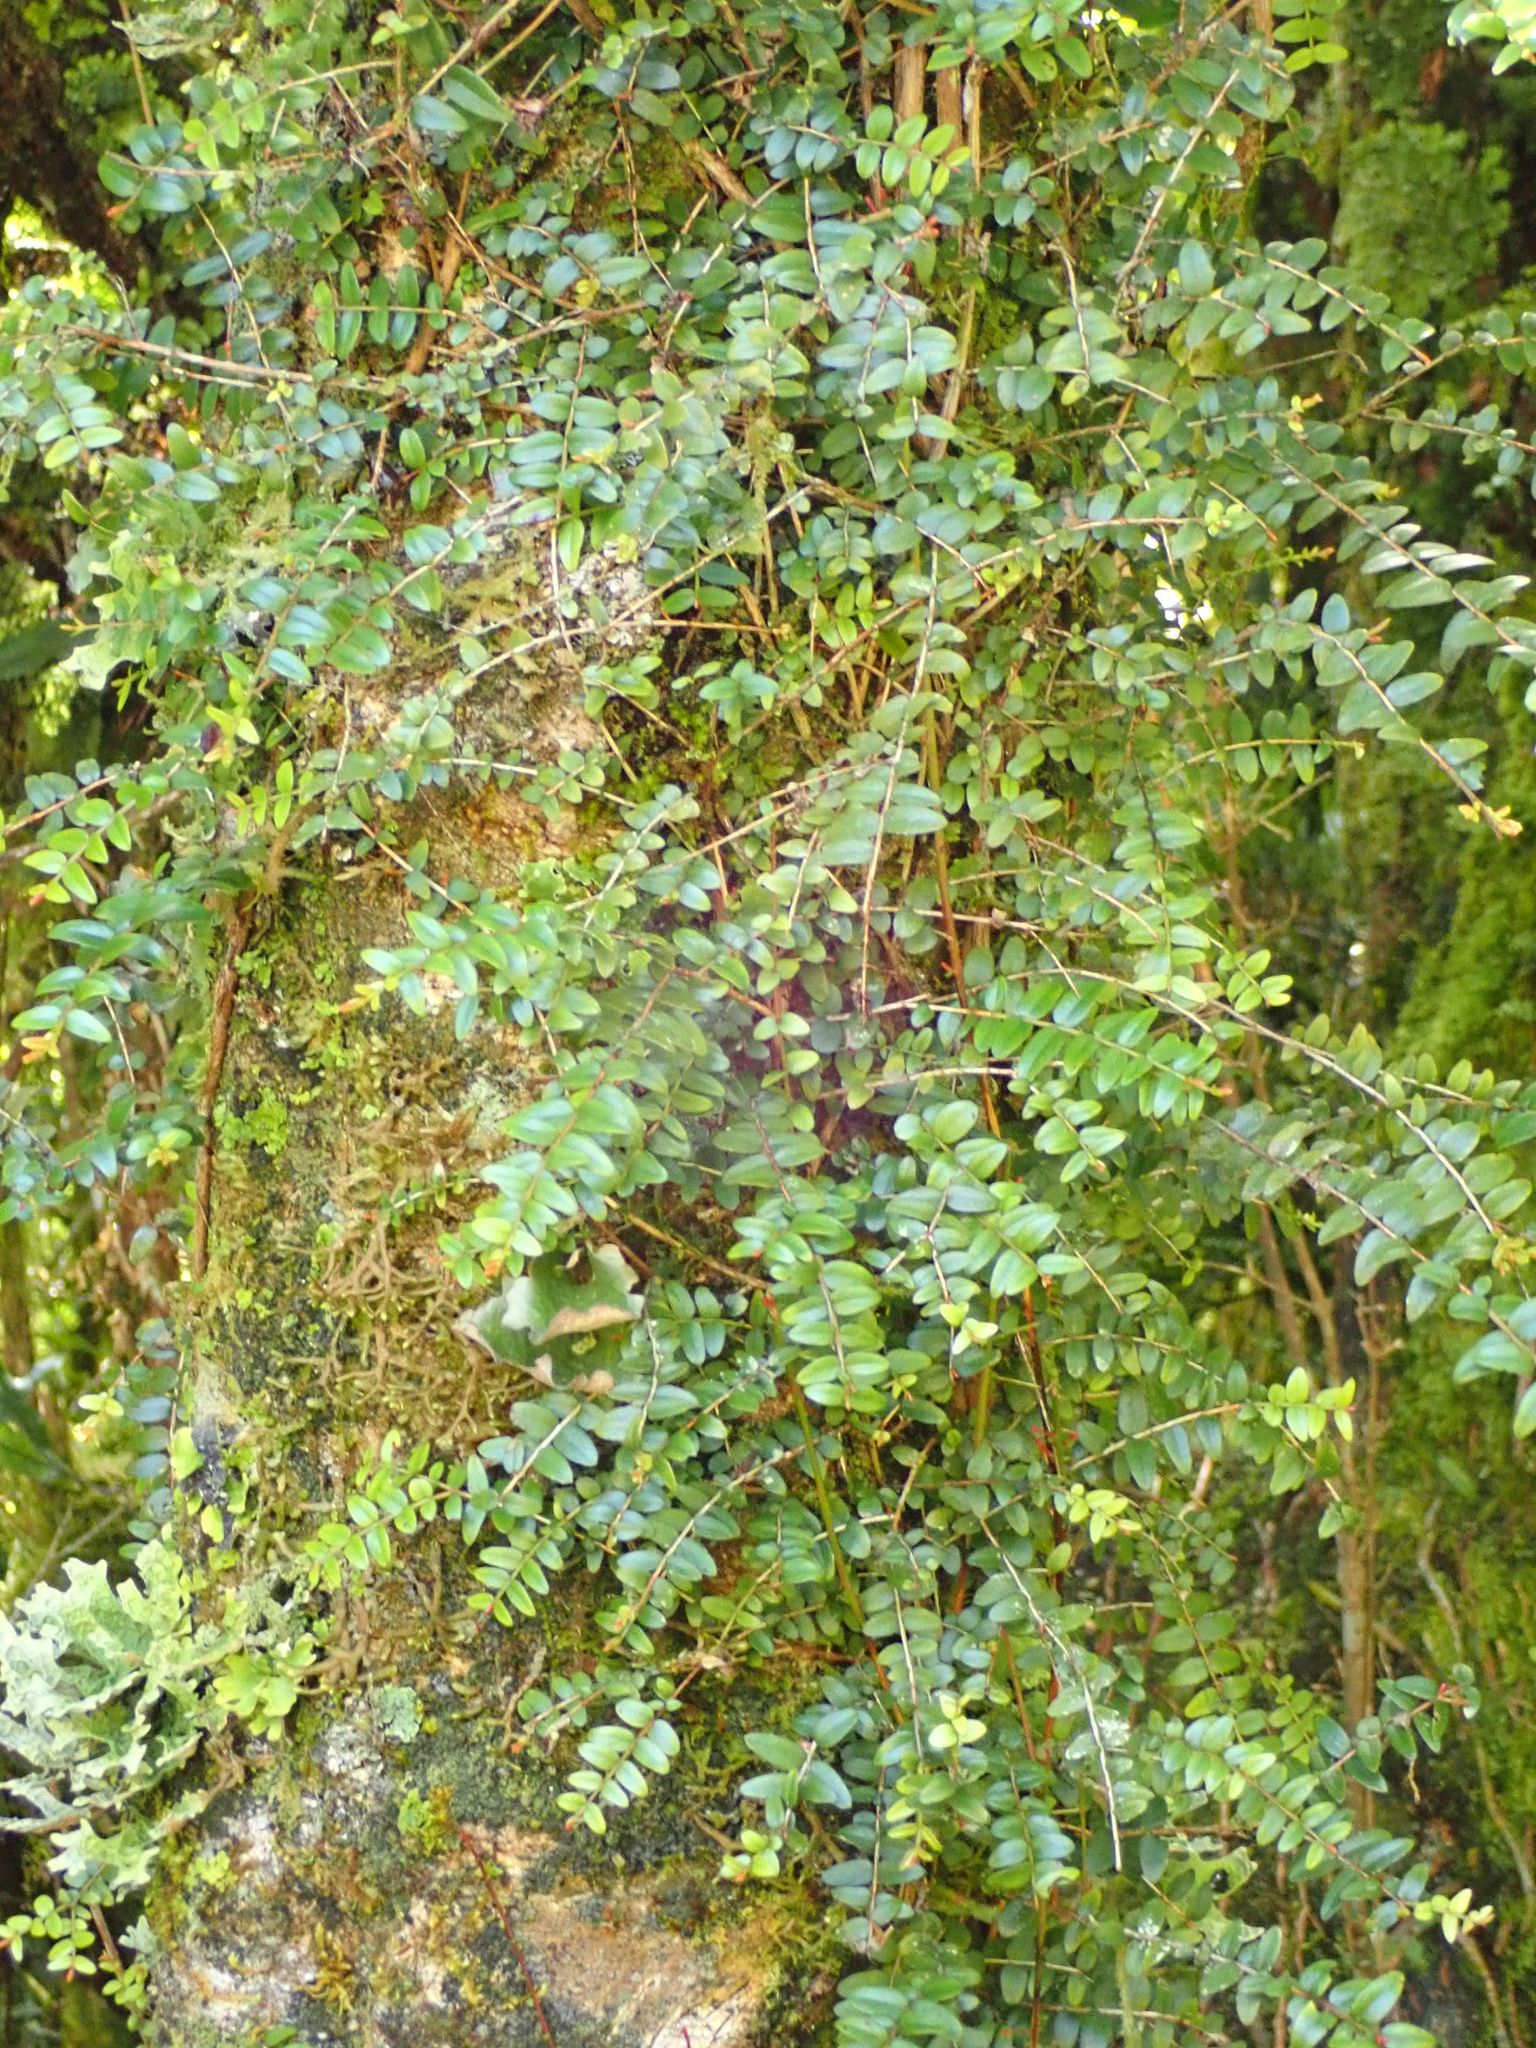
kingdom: Plantae
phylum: Tracheophyta
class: Magnoliopsida
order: Myrtales
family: Myrtaceae
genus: Metrosideros
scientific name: Metrosideros diffusa
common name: Small ratavine
